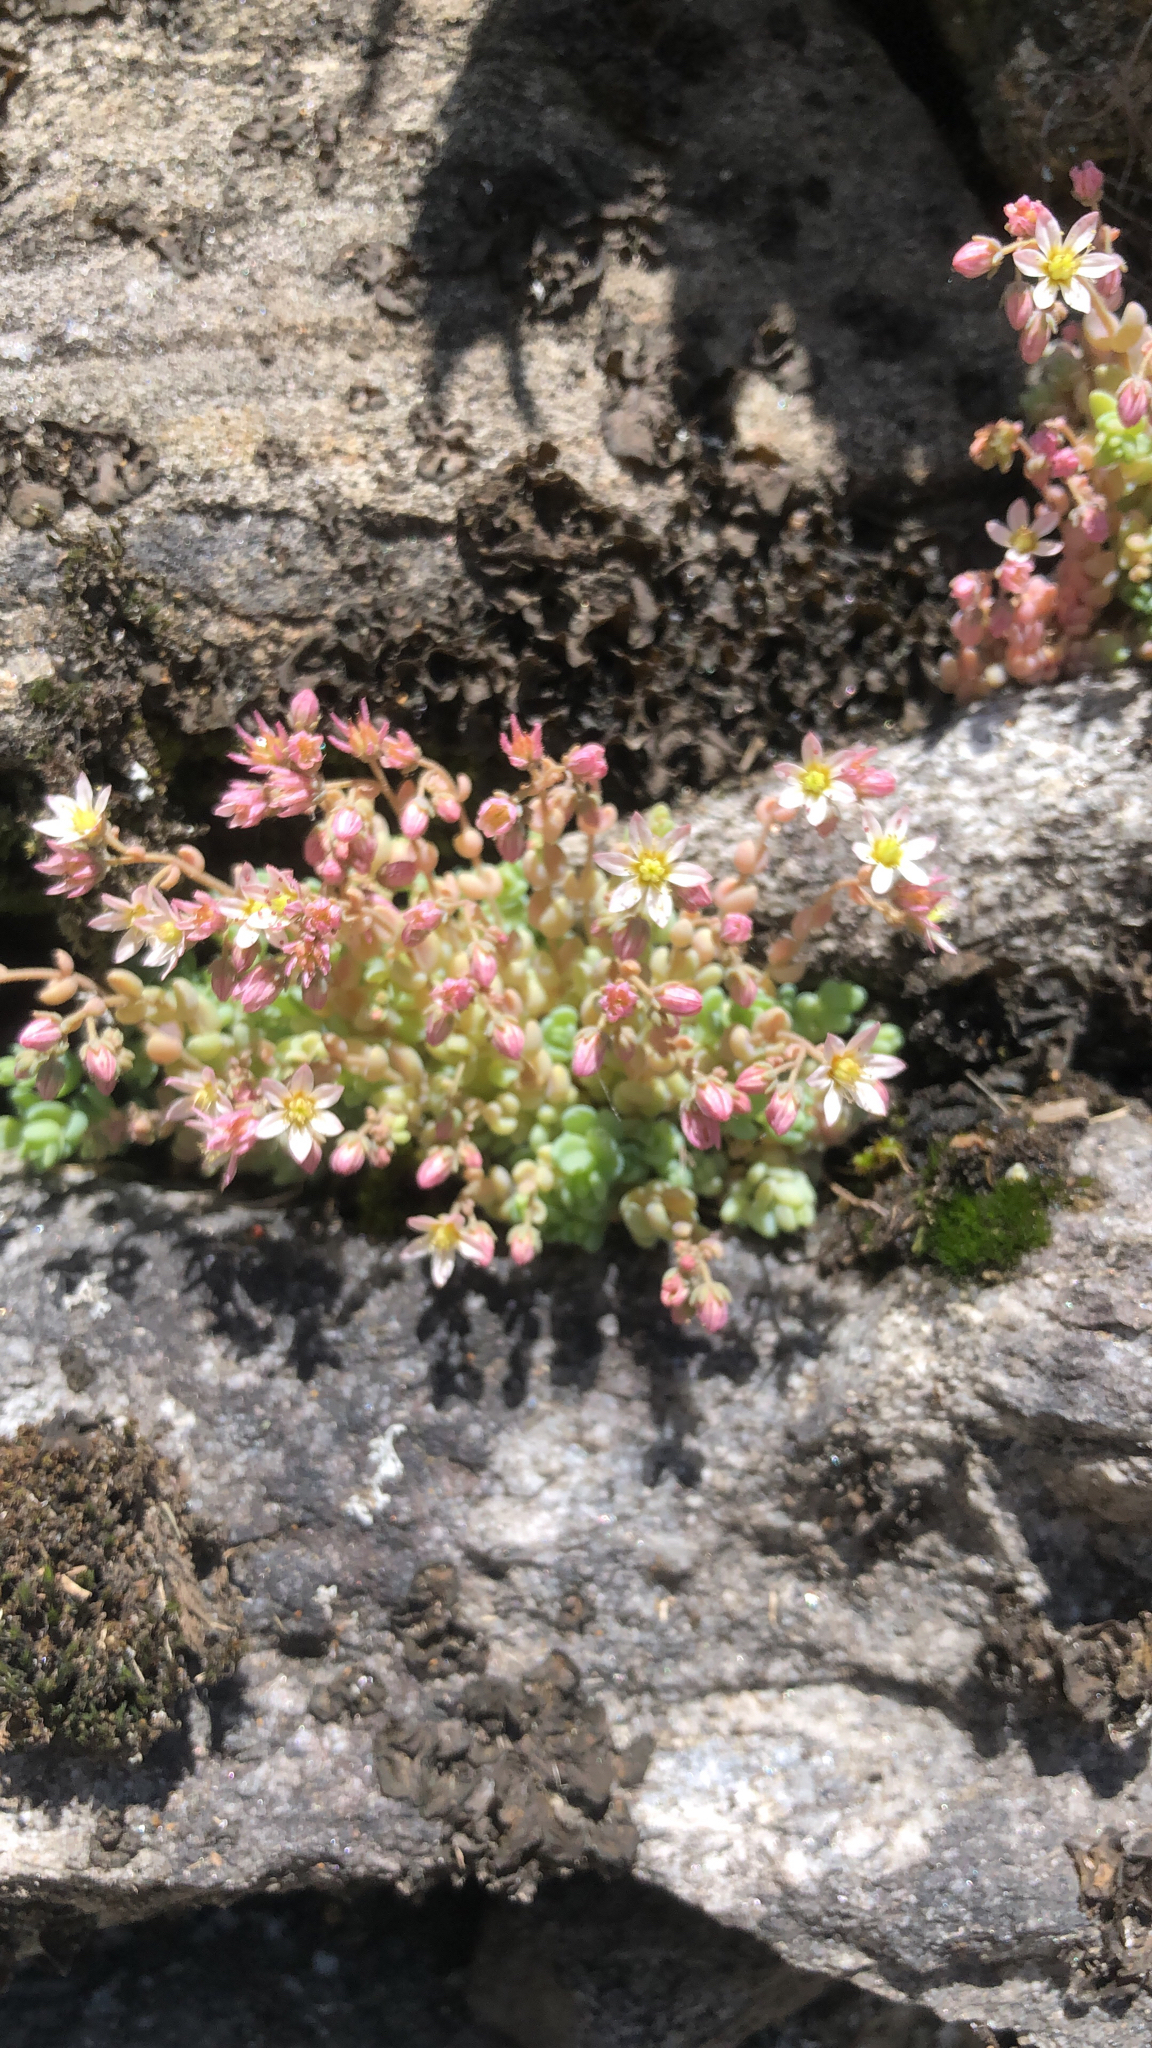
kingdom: Plantae
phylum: Tracheophyta
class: Magnoliopsida
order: Saxifragales
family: Crassulaceae
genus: Sedum
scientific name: Sedum dasyphyllum
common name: Thick-leaf stonecrop
